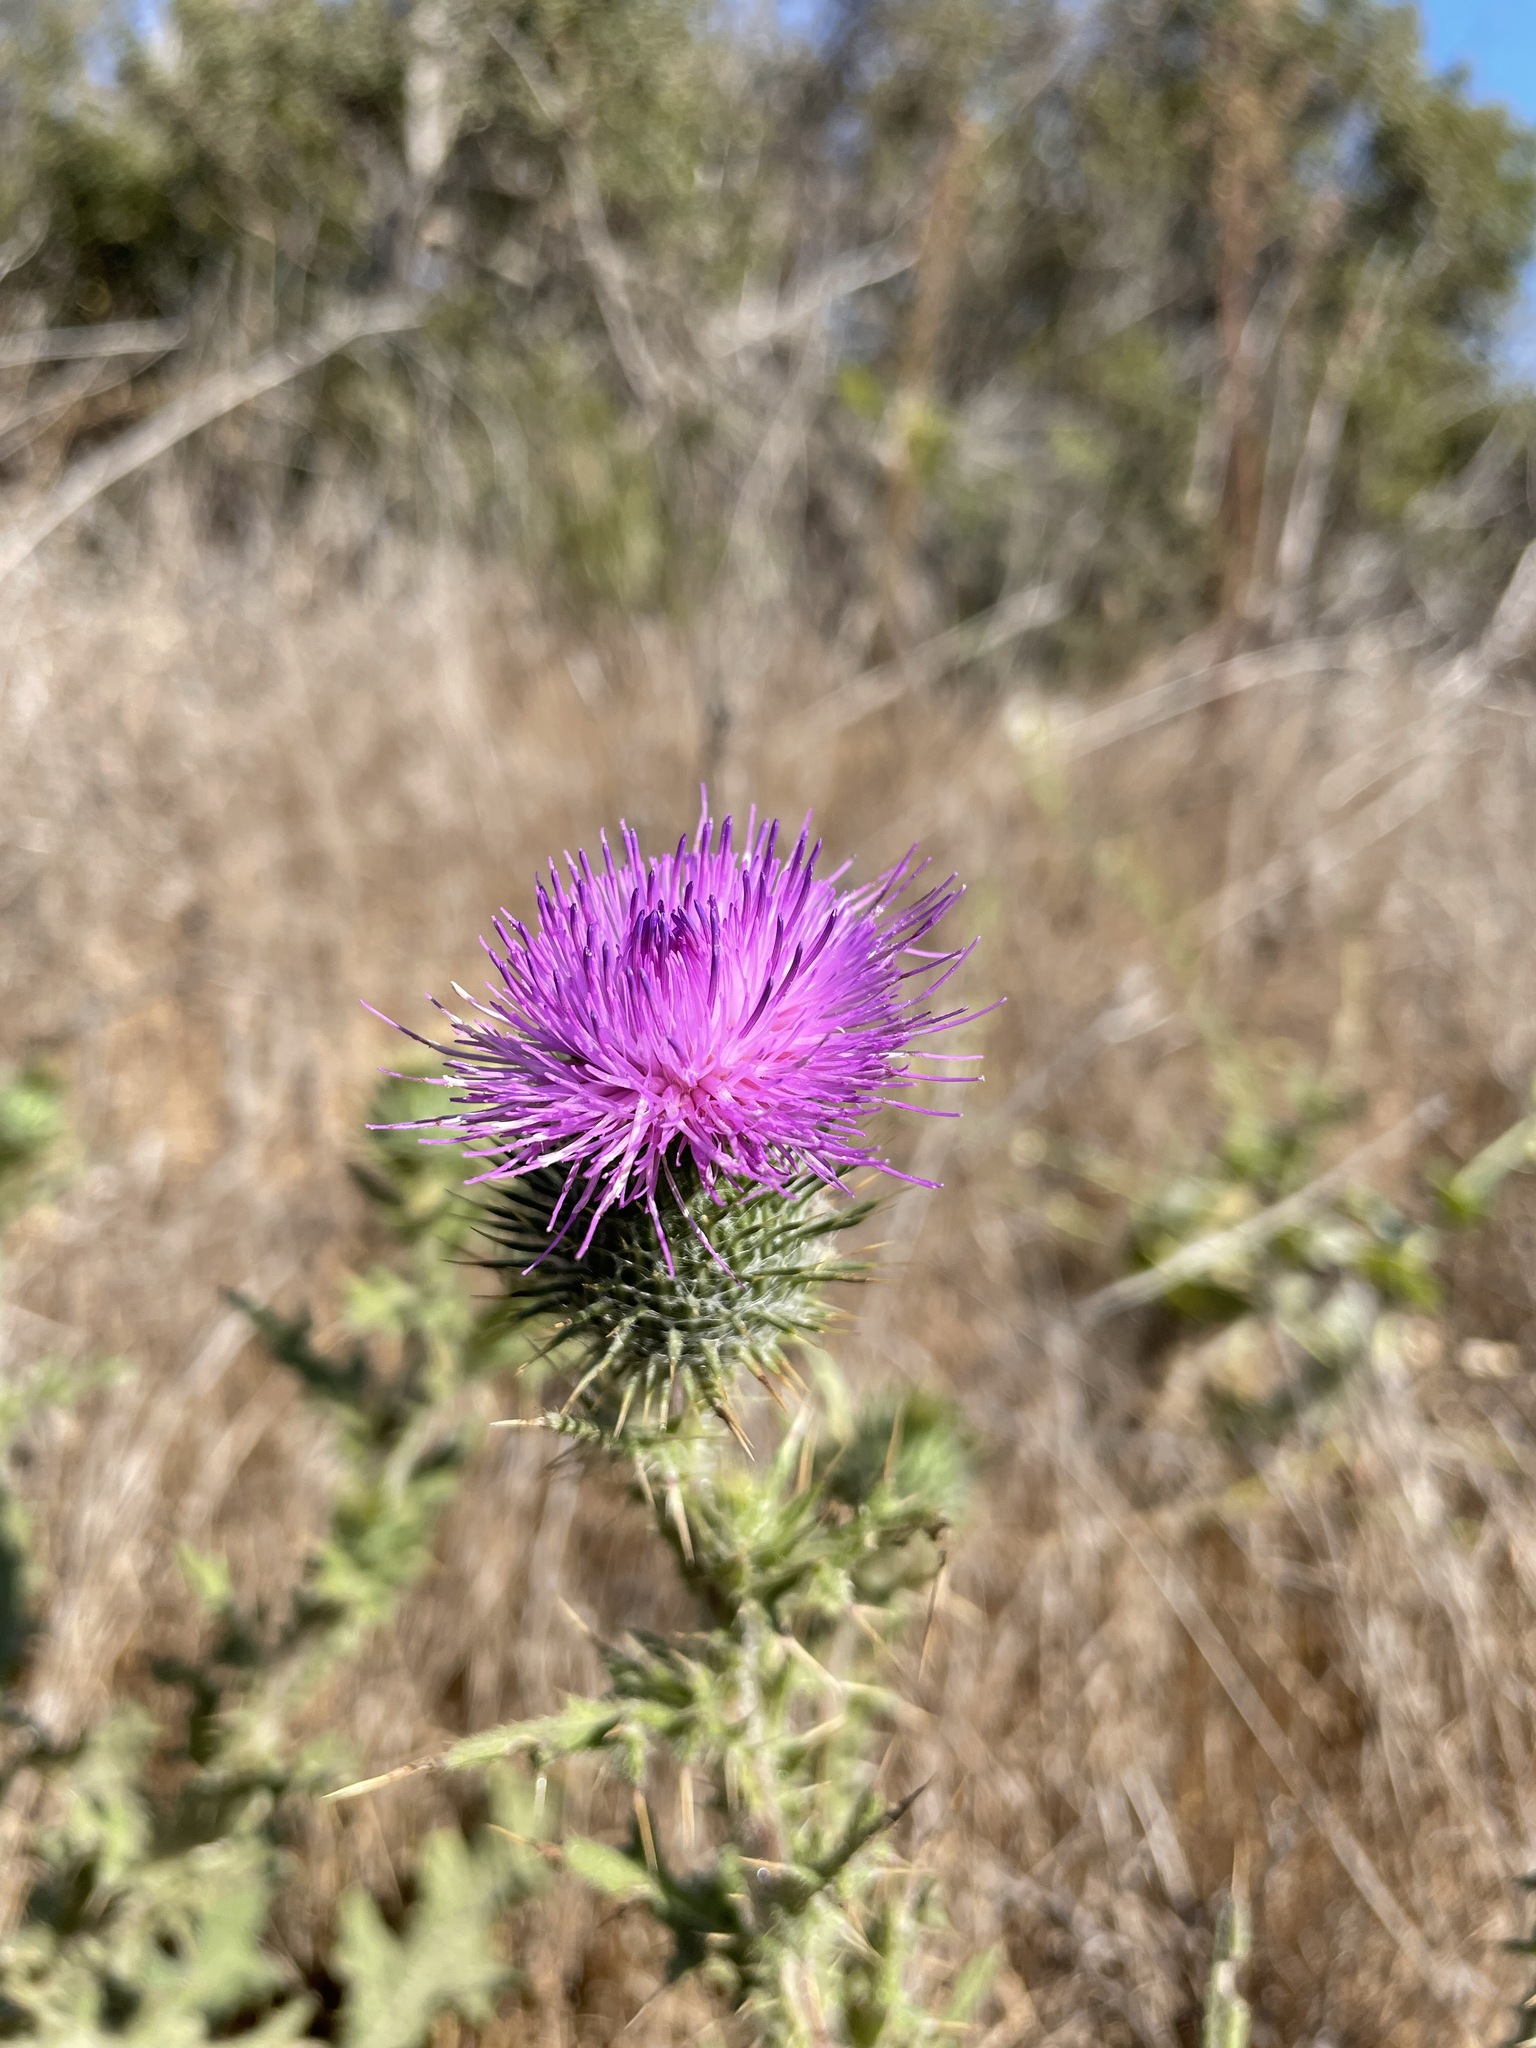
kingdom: Plantae
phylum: Tracheophyta
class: Magnoliopsida
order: Asterales
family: Asteraceae
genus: Cirsium
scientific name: Cirsium vulgare
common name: Bull thistle
